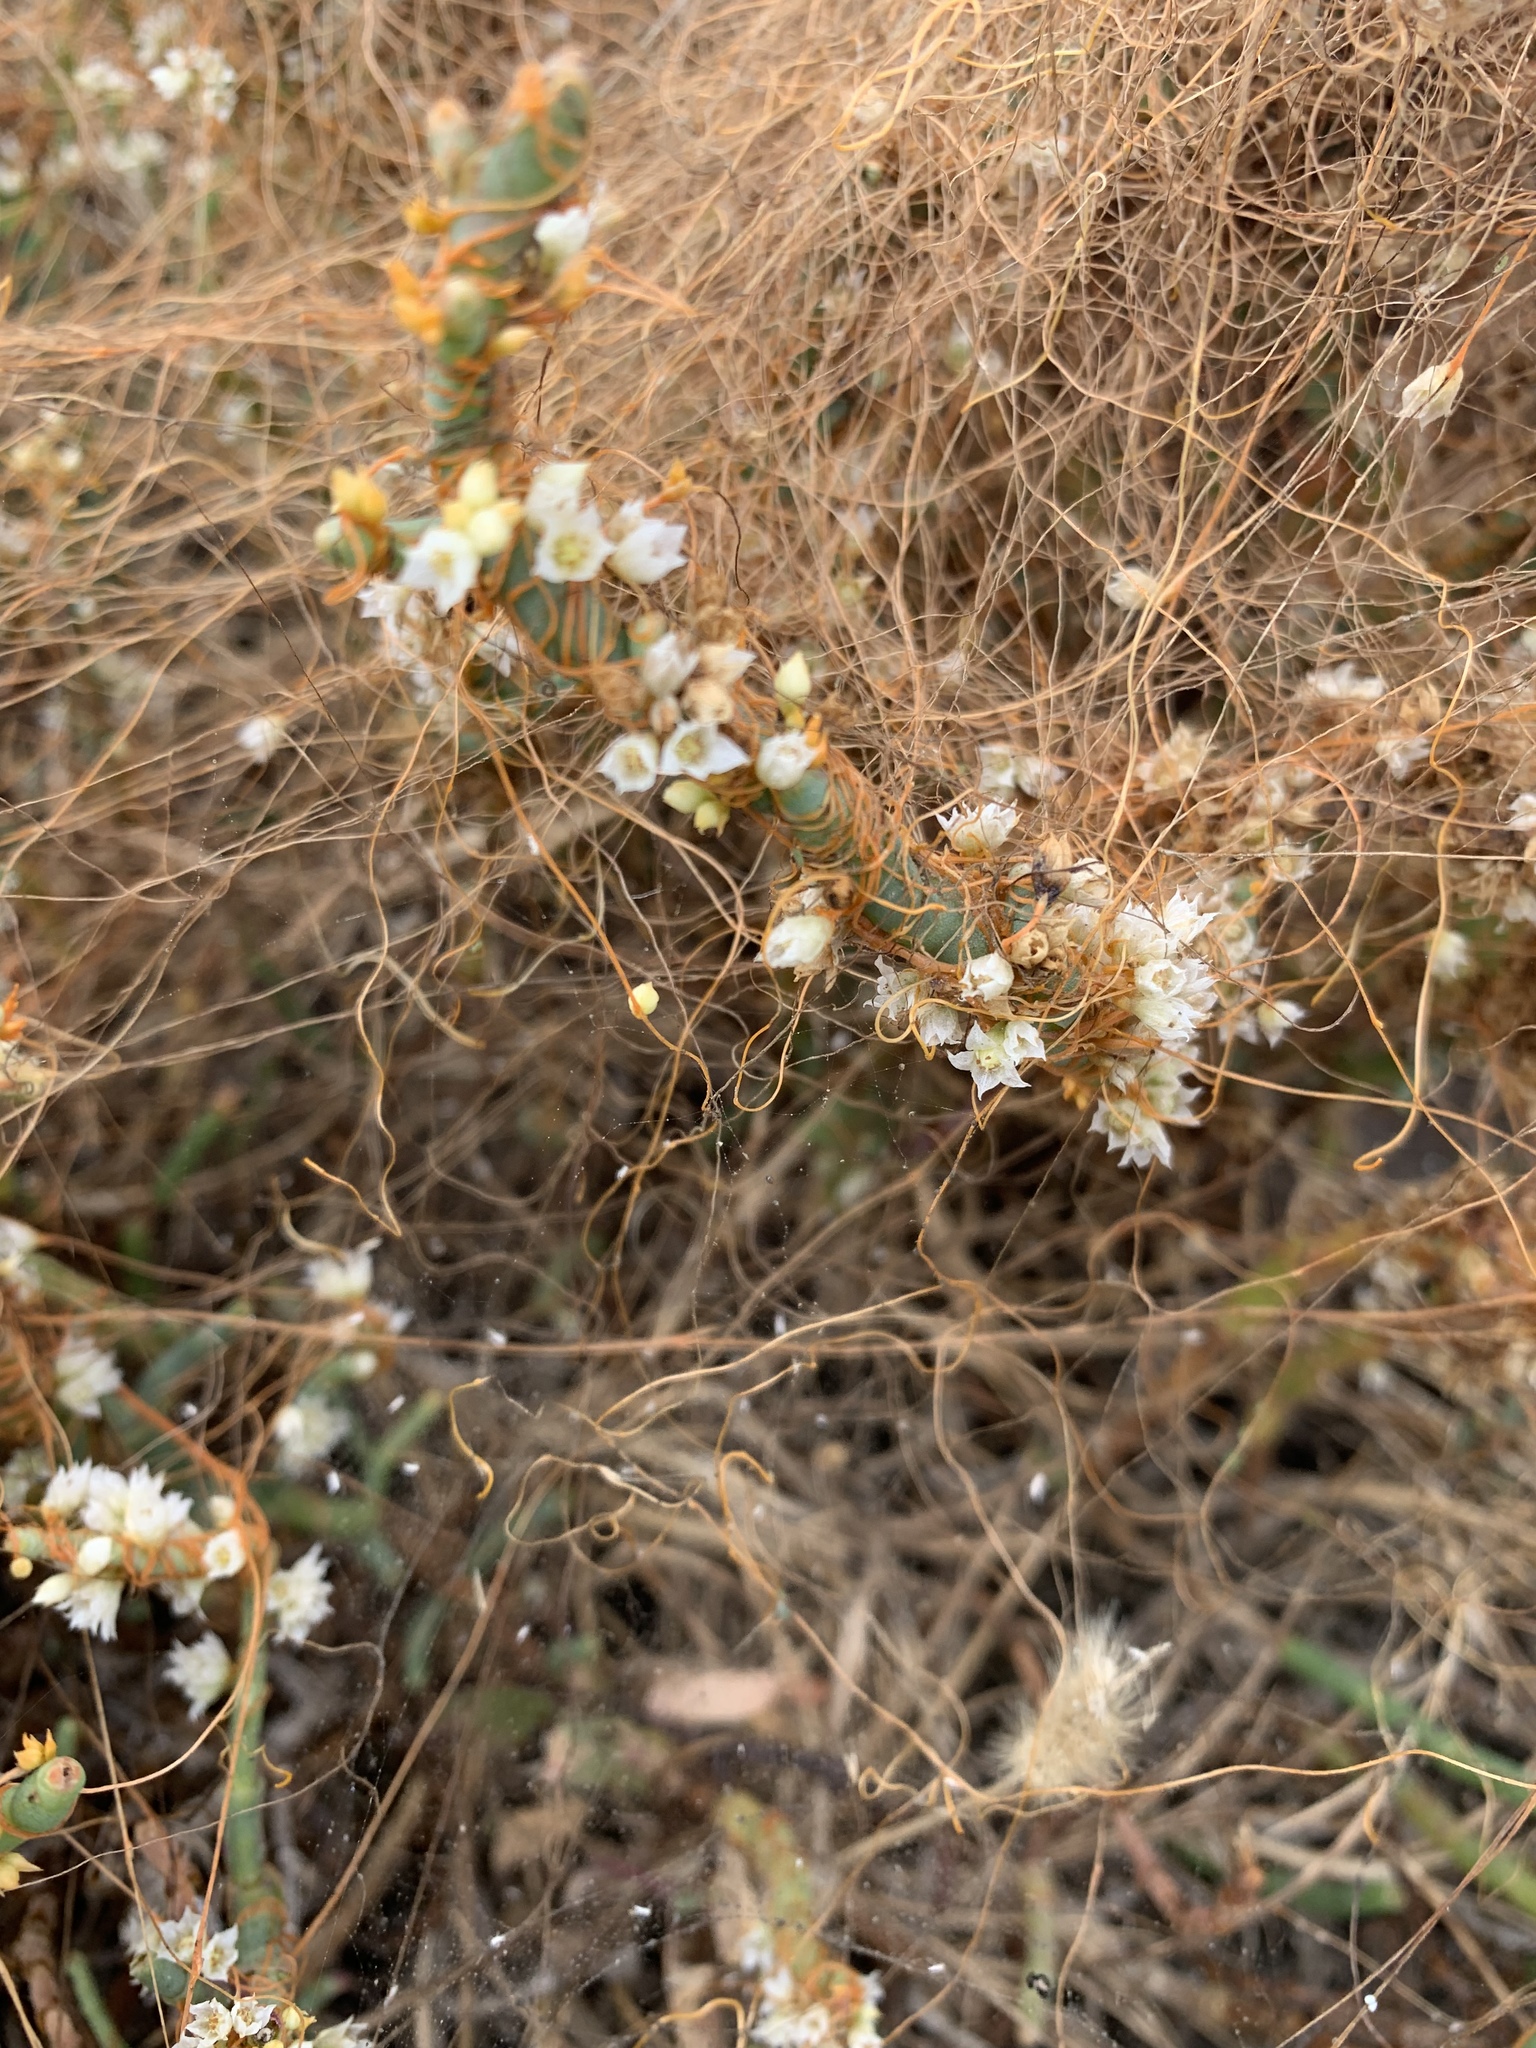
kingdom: Plantae
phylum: Tracheophyta
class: Magnoliopsida
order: Solanales
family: Convolvulaceae
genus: Cuscuta
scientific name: Cuscuta pacifica
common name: Large saltmarsh dodder
